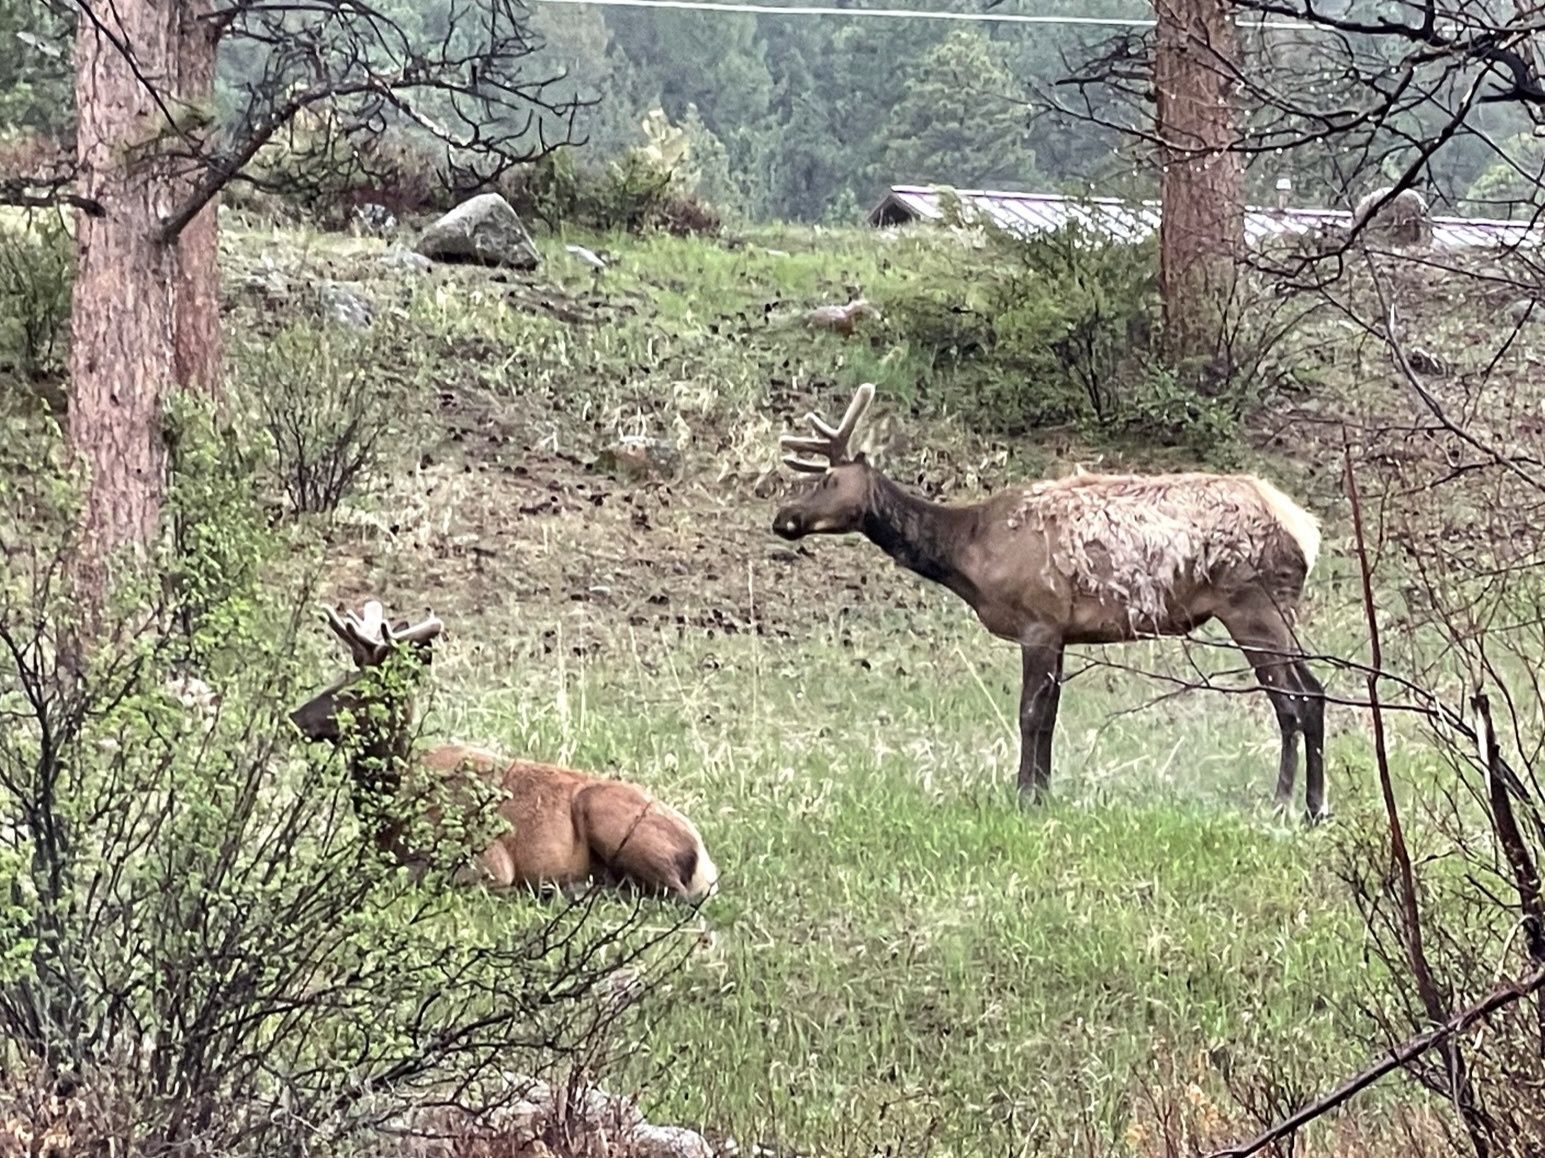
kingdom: Animalia
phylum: Chordata
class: Mammalia
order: Artiodactyla
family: Cervidae
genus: Cervus
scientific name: Cervus elaphus
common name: Red deer
